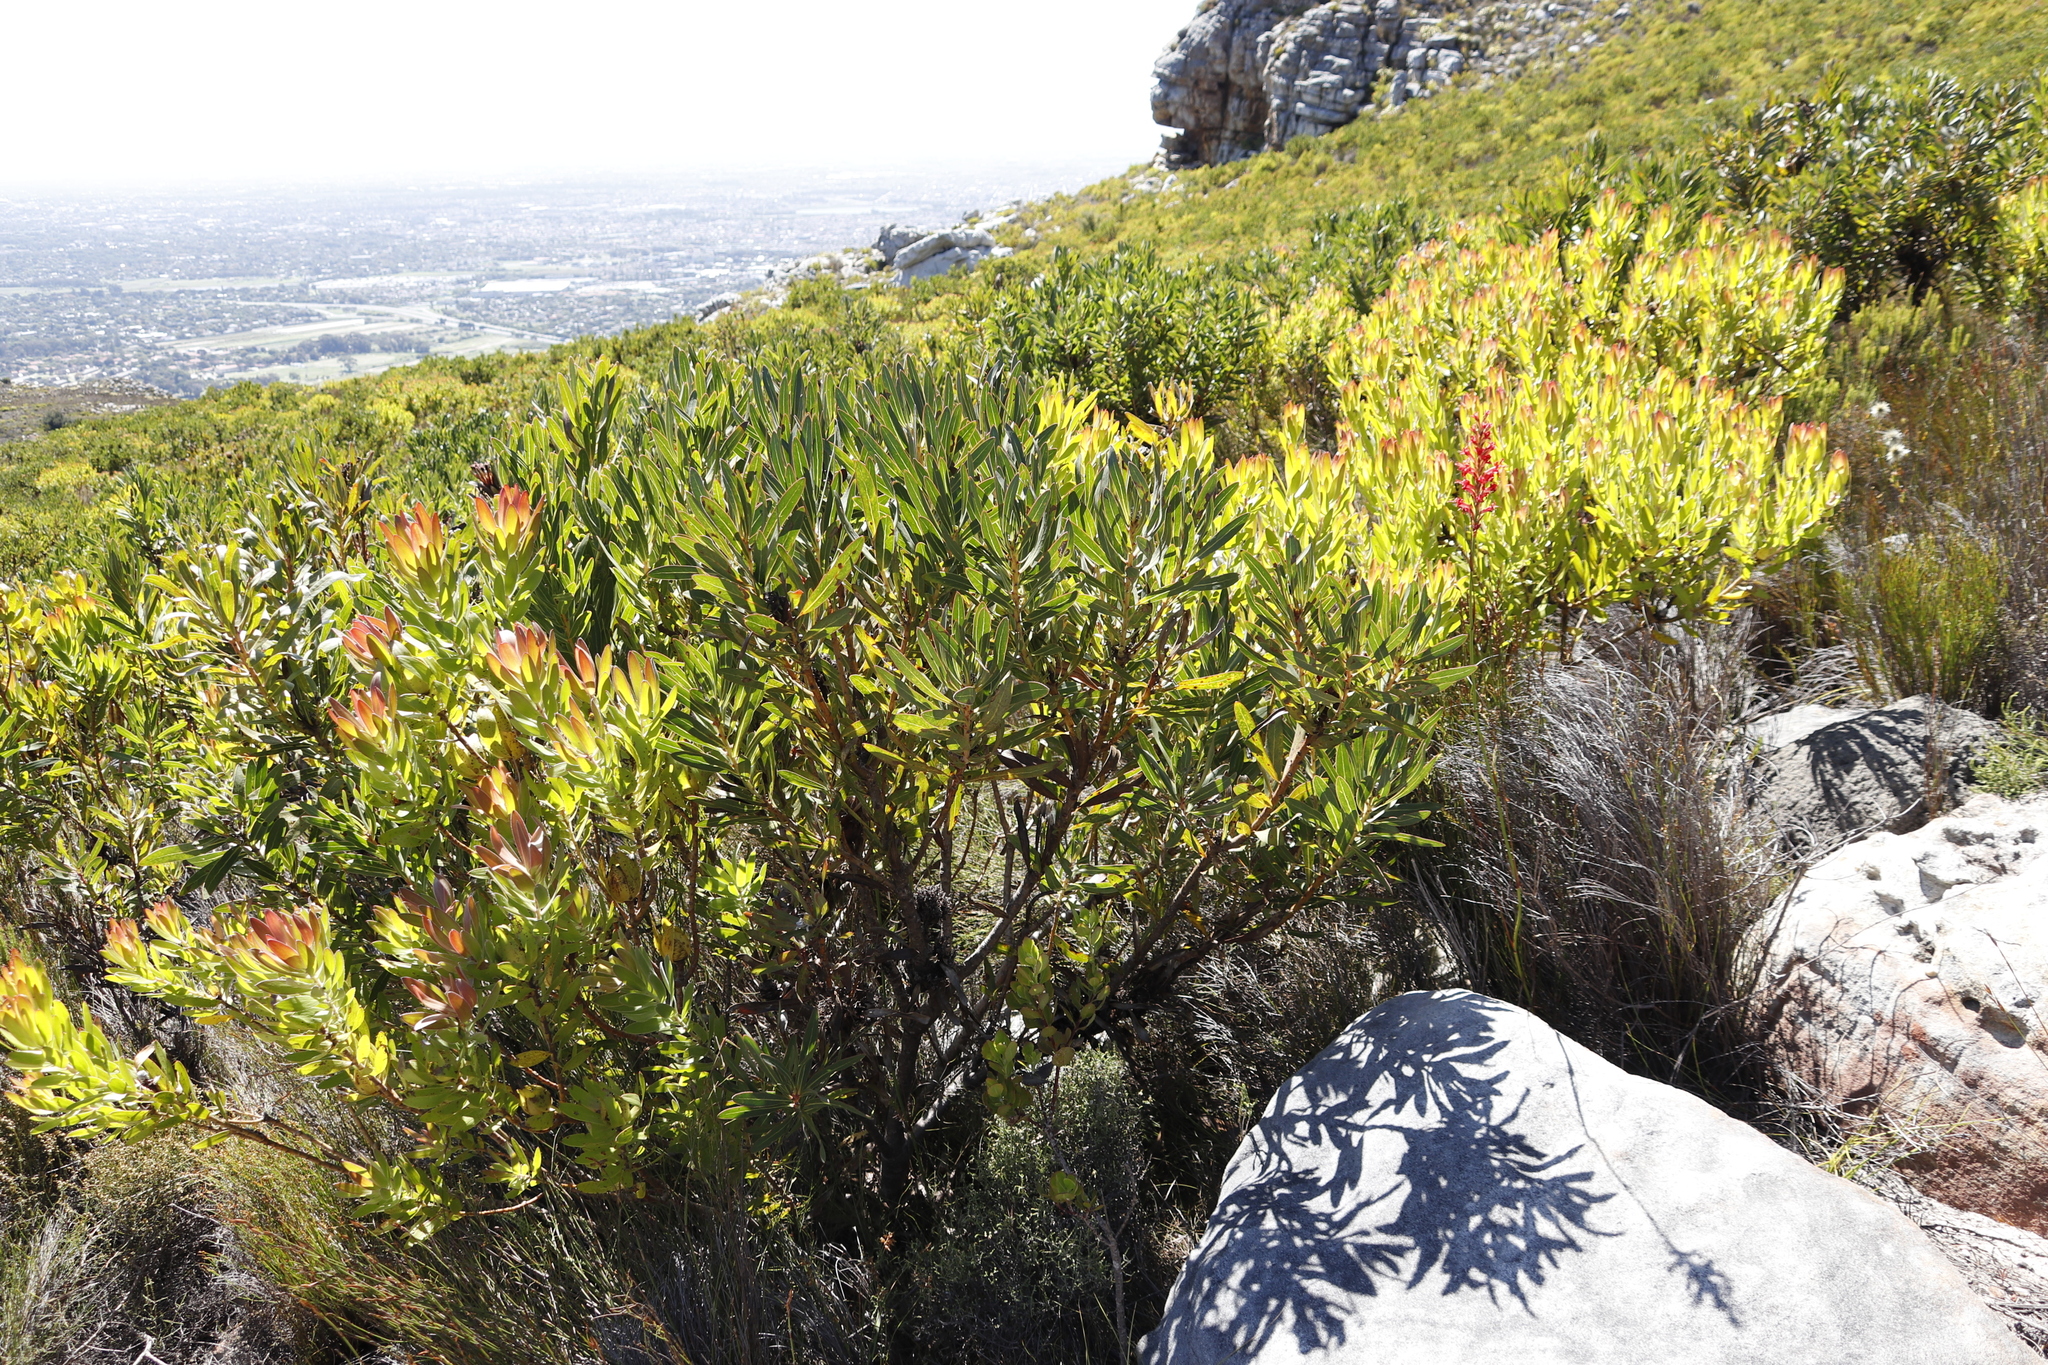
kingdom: Plantae
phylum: Tracheophyta
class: Magnoliopsida
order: Proteales
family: Proteaceae
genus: Protea
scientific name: Protea lepidocarpodendron
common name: Black-bearded protea
